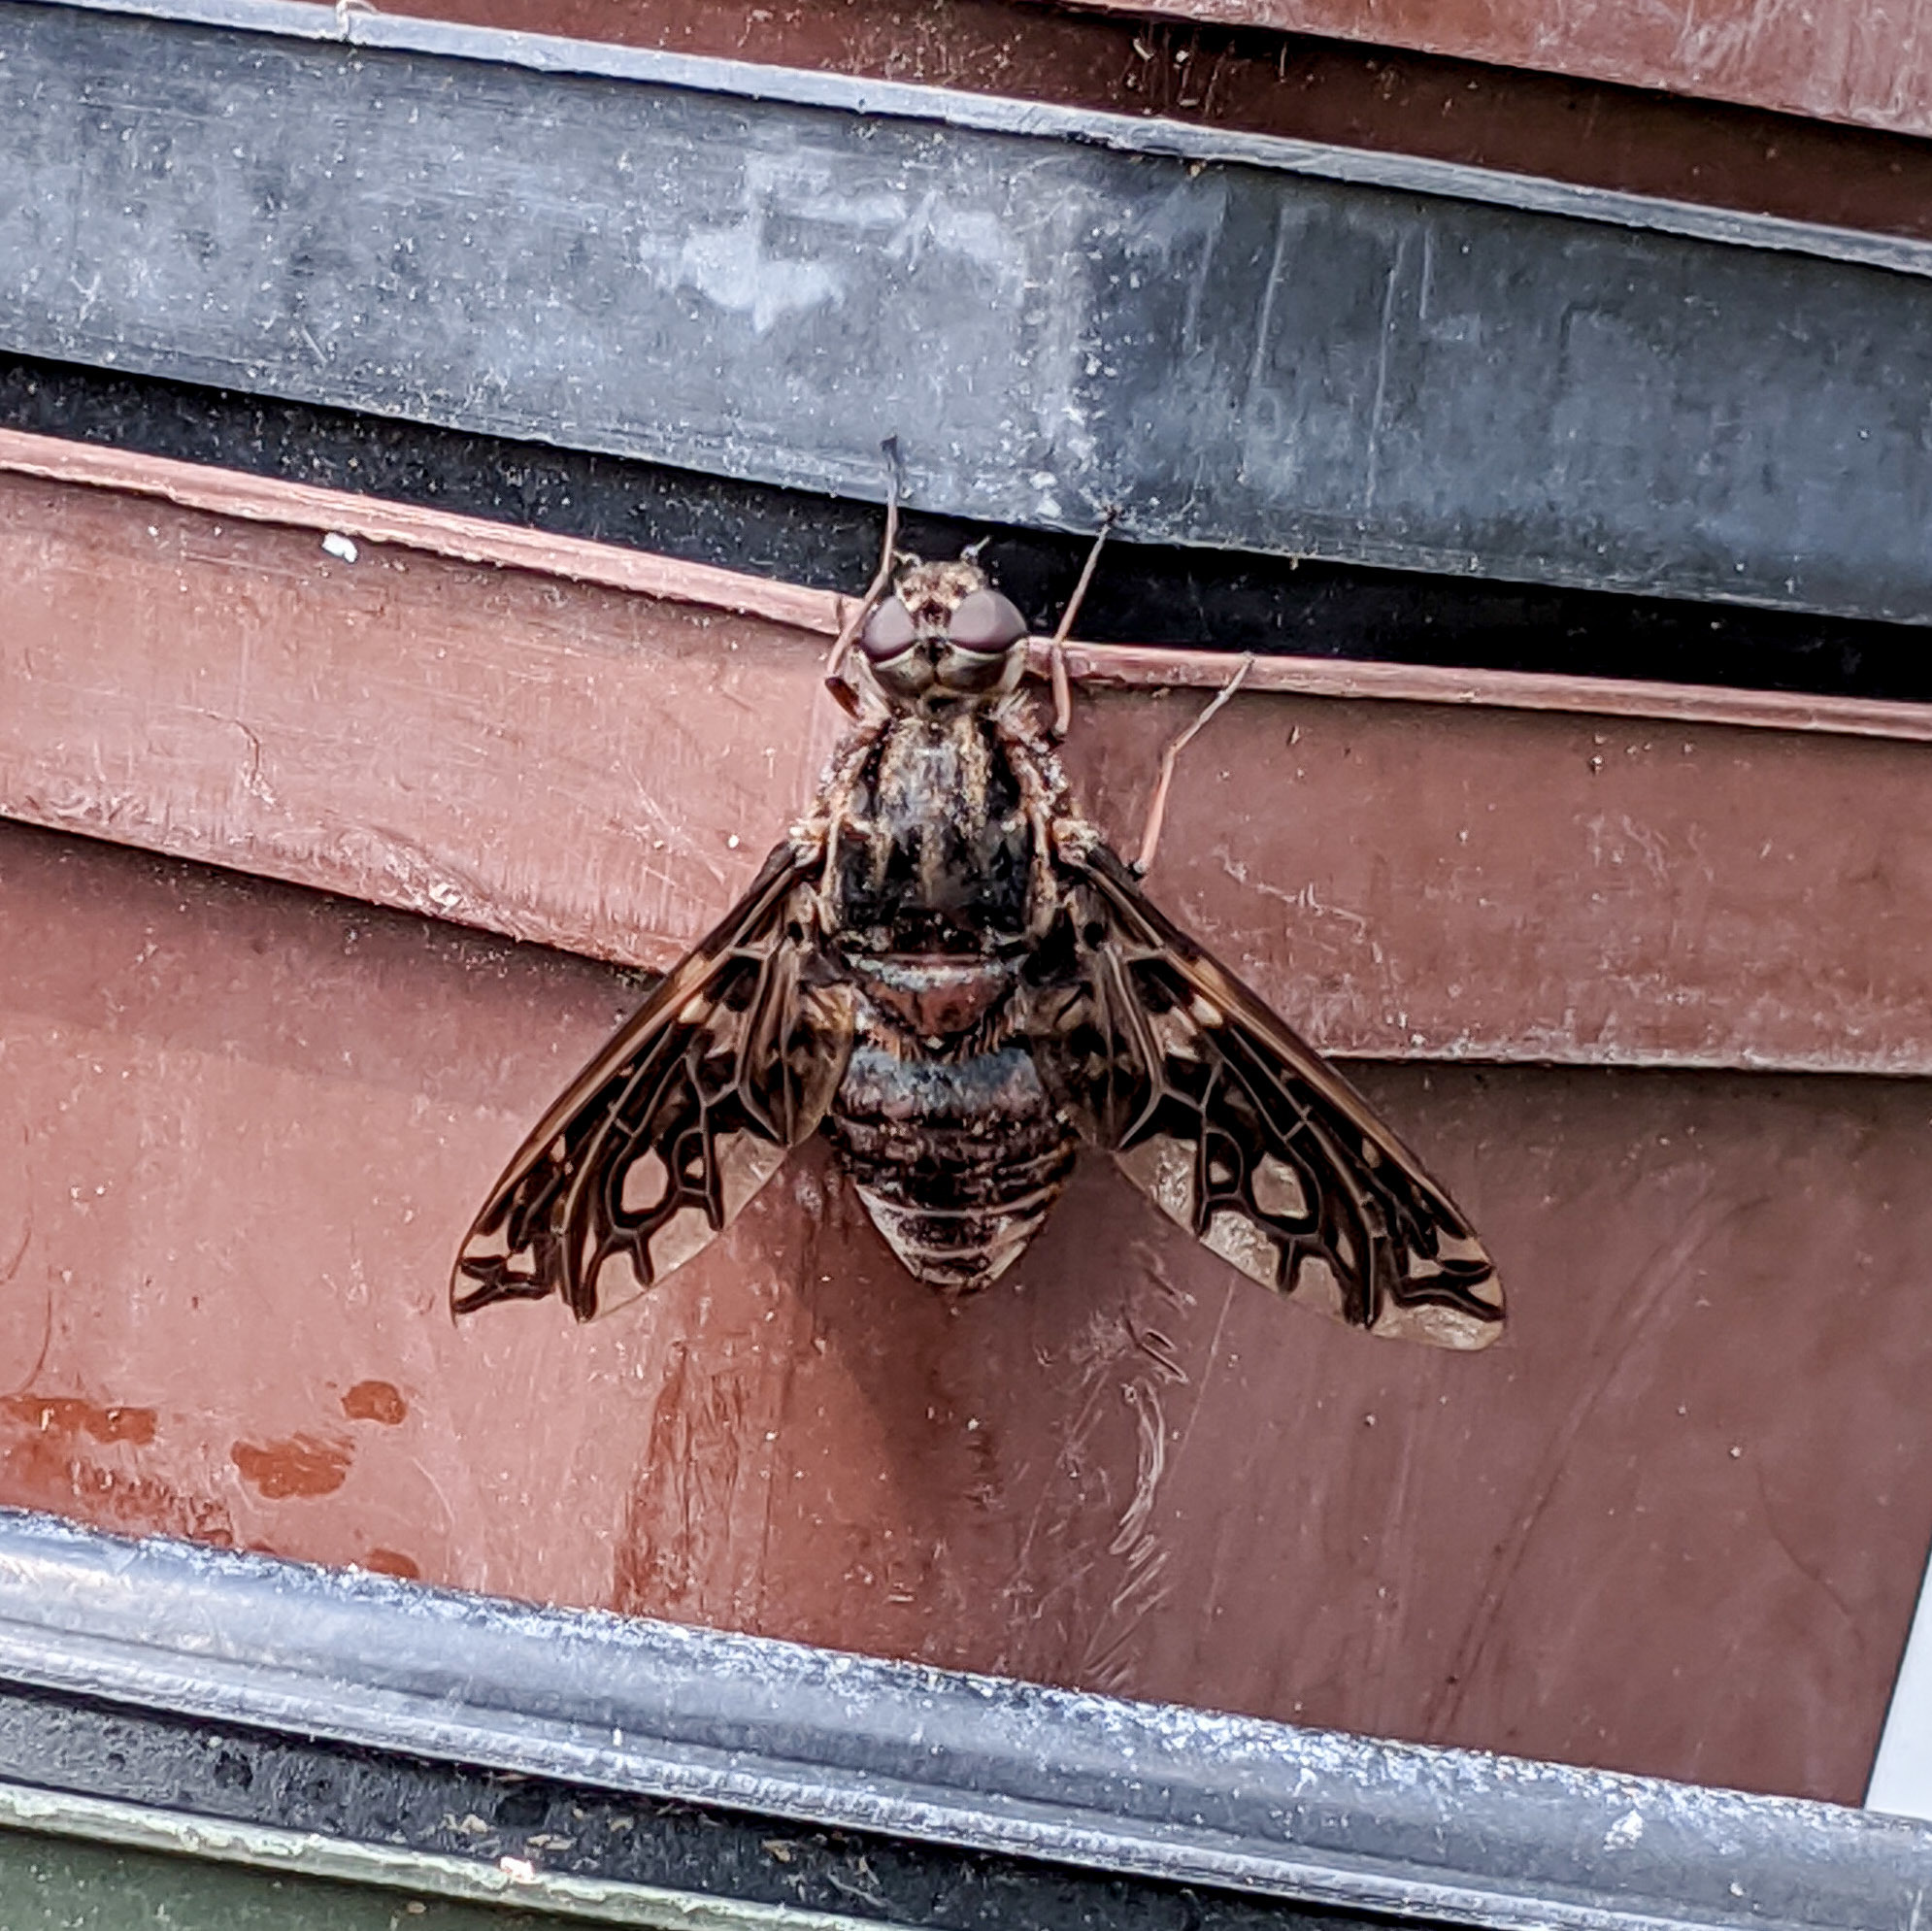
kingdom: Animalia
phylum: Arthropoda
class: Insecta
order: Diptera
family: Bombyliidae
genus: Xenox
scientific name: Xenox tigrinus
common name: Tiger bee fly
